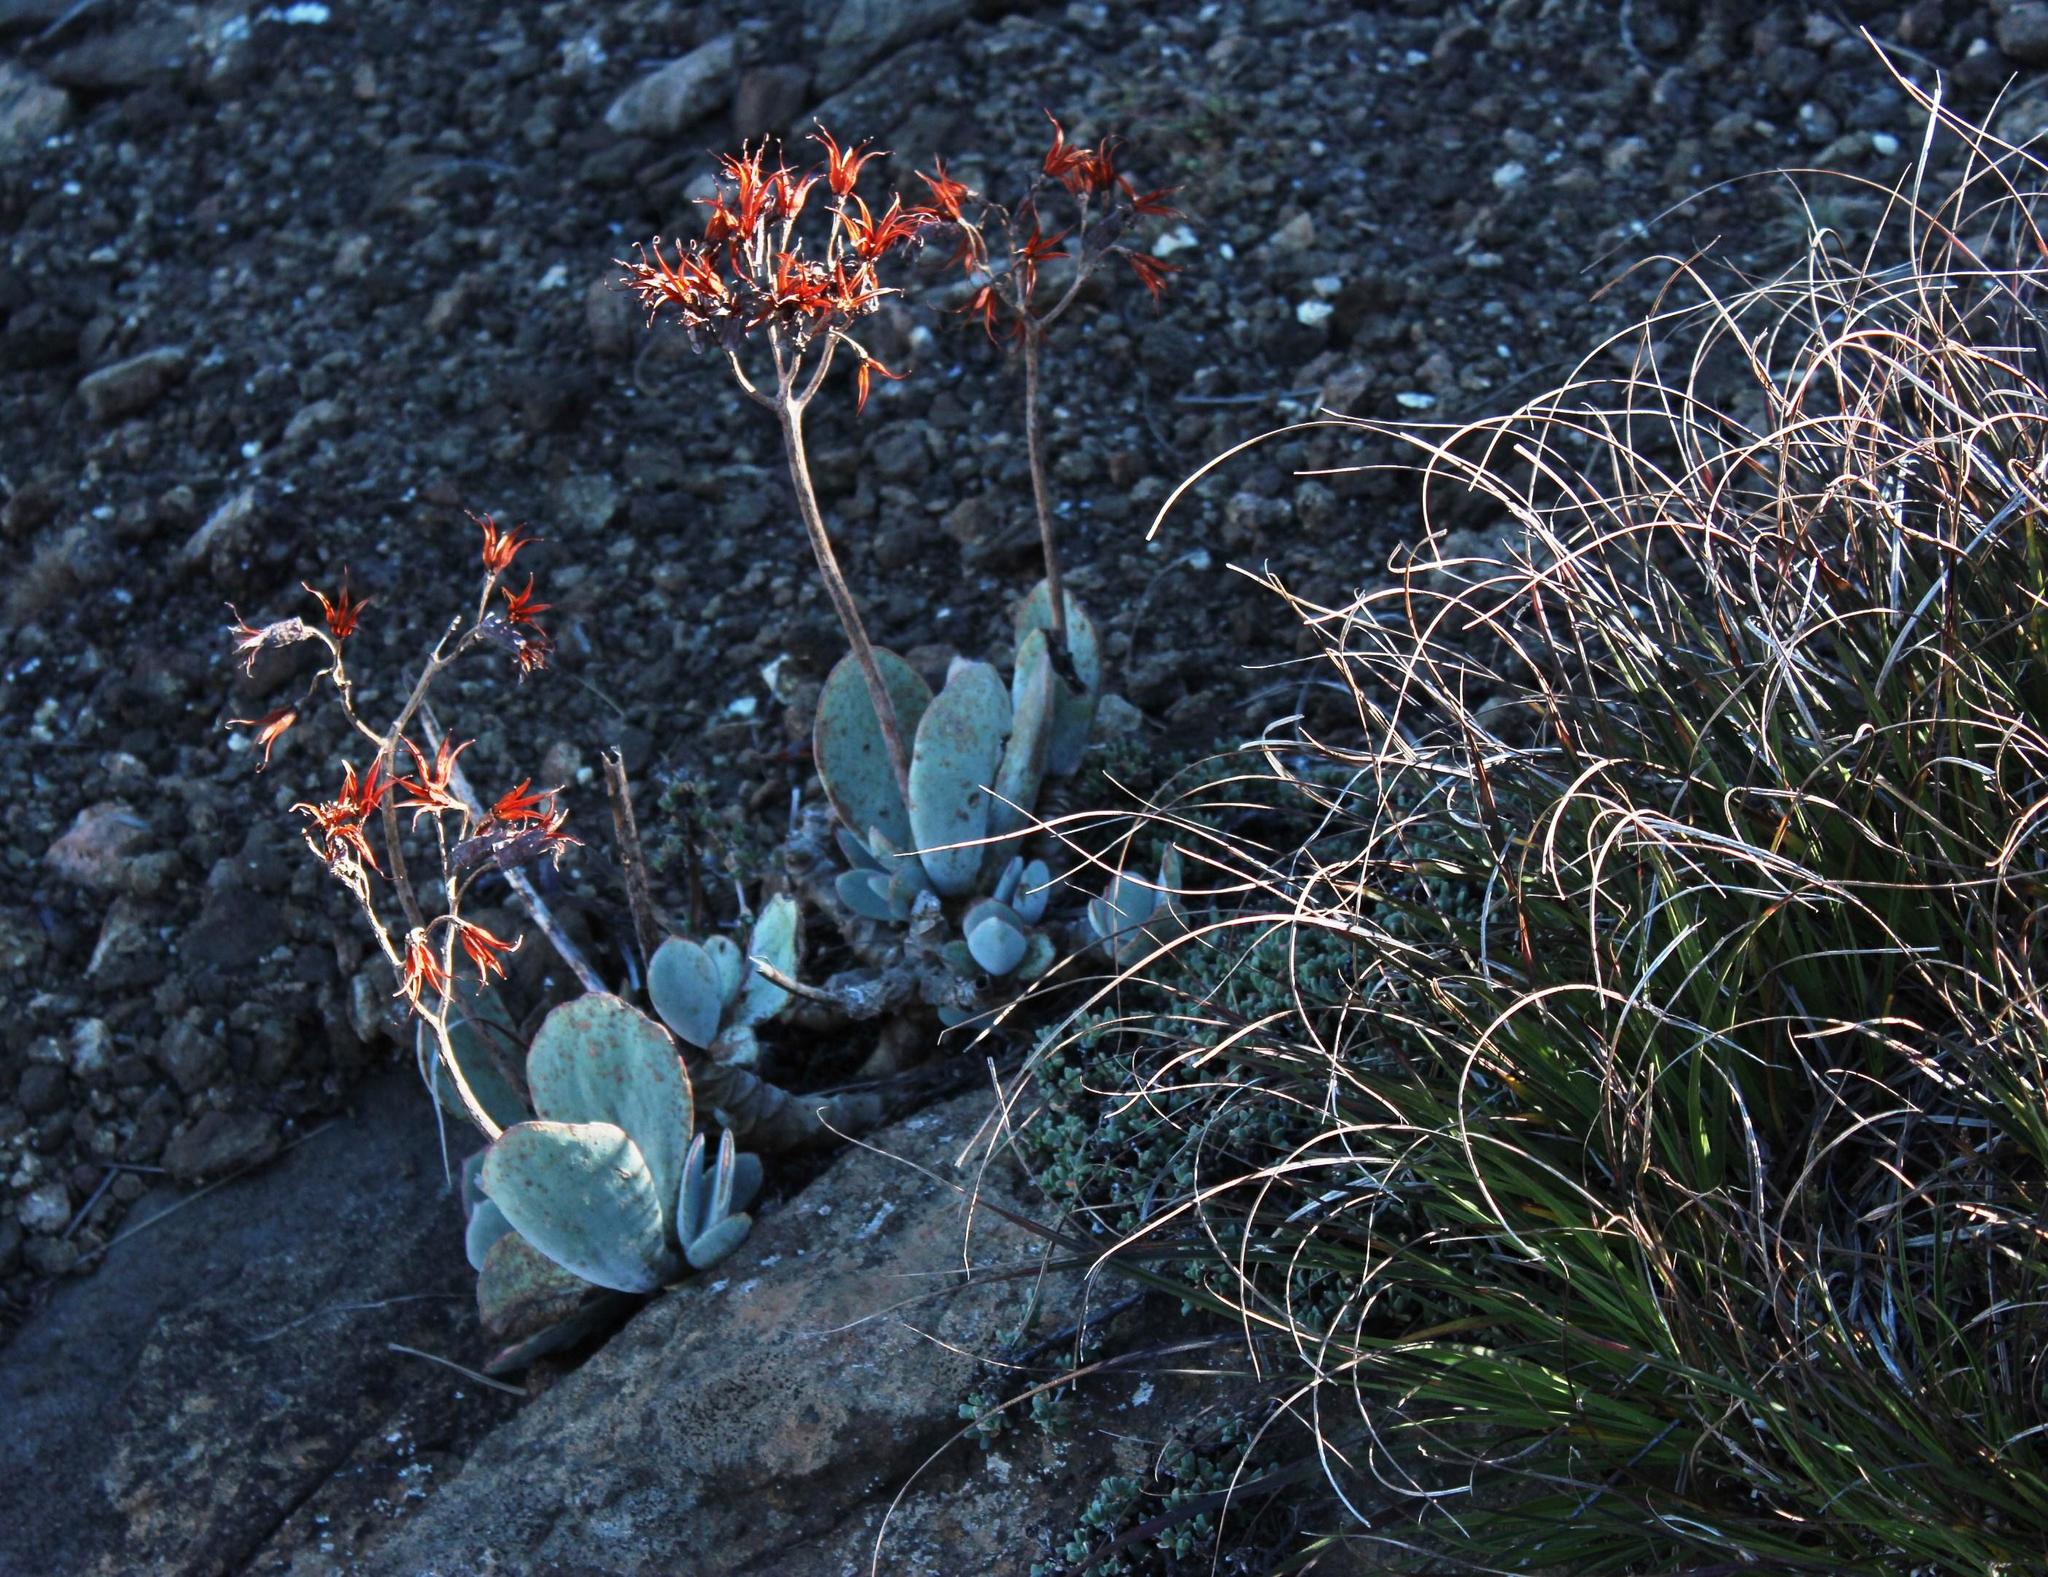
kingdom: Plantae
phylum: Tracheophyta
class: Magnoliopsida
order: Saxifragales
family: Crassulaceae
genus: Cotyledon
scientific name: Cotyledon orbiculata
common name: Pig's ear
